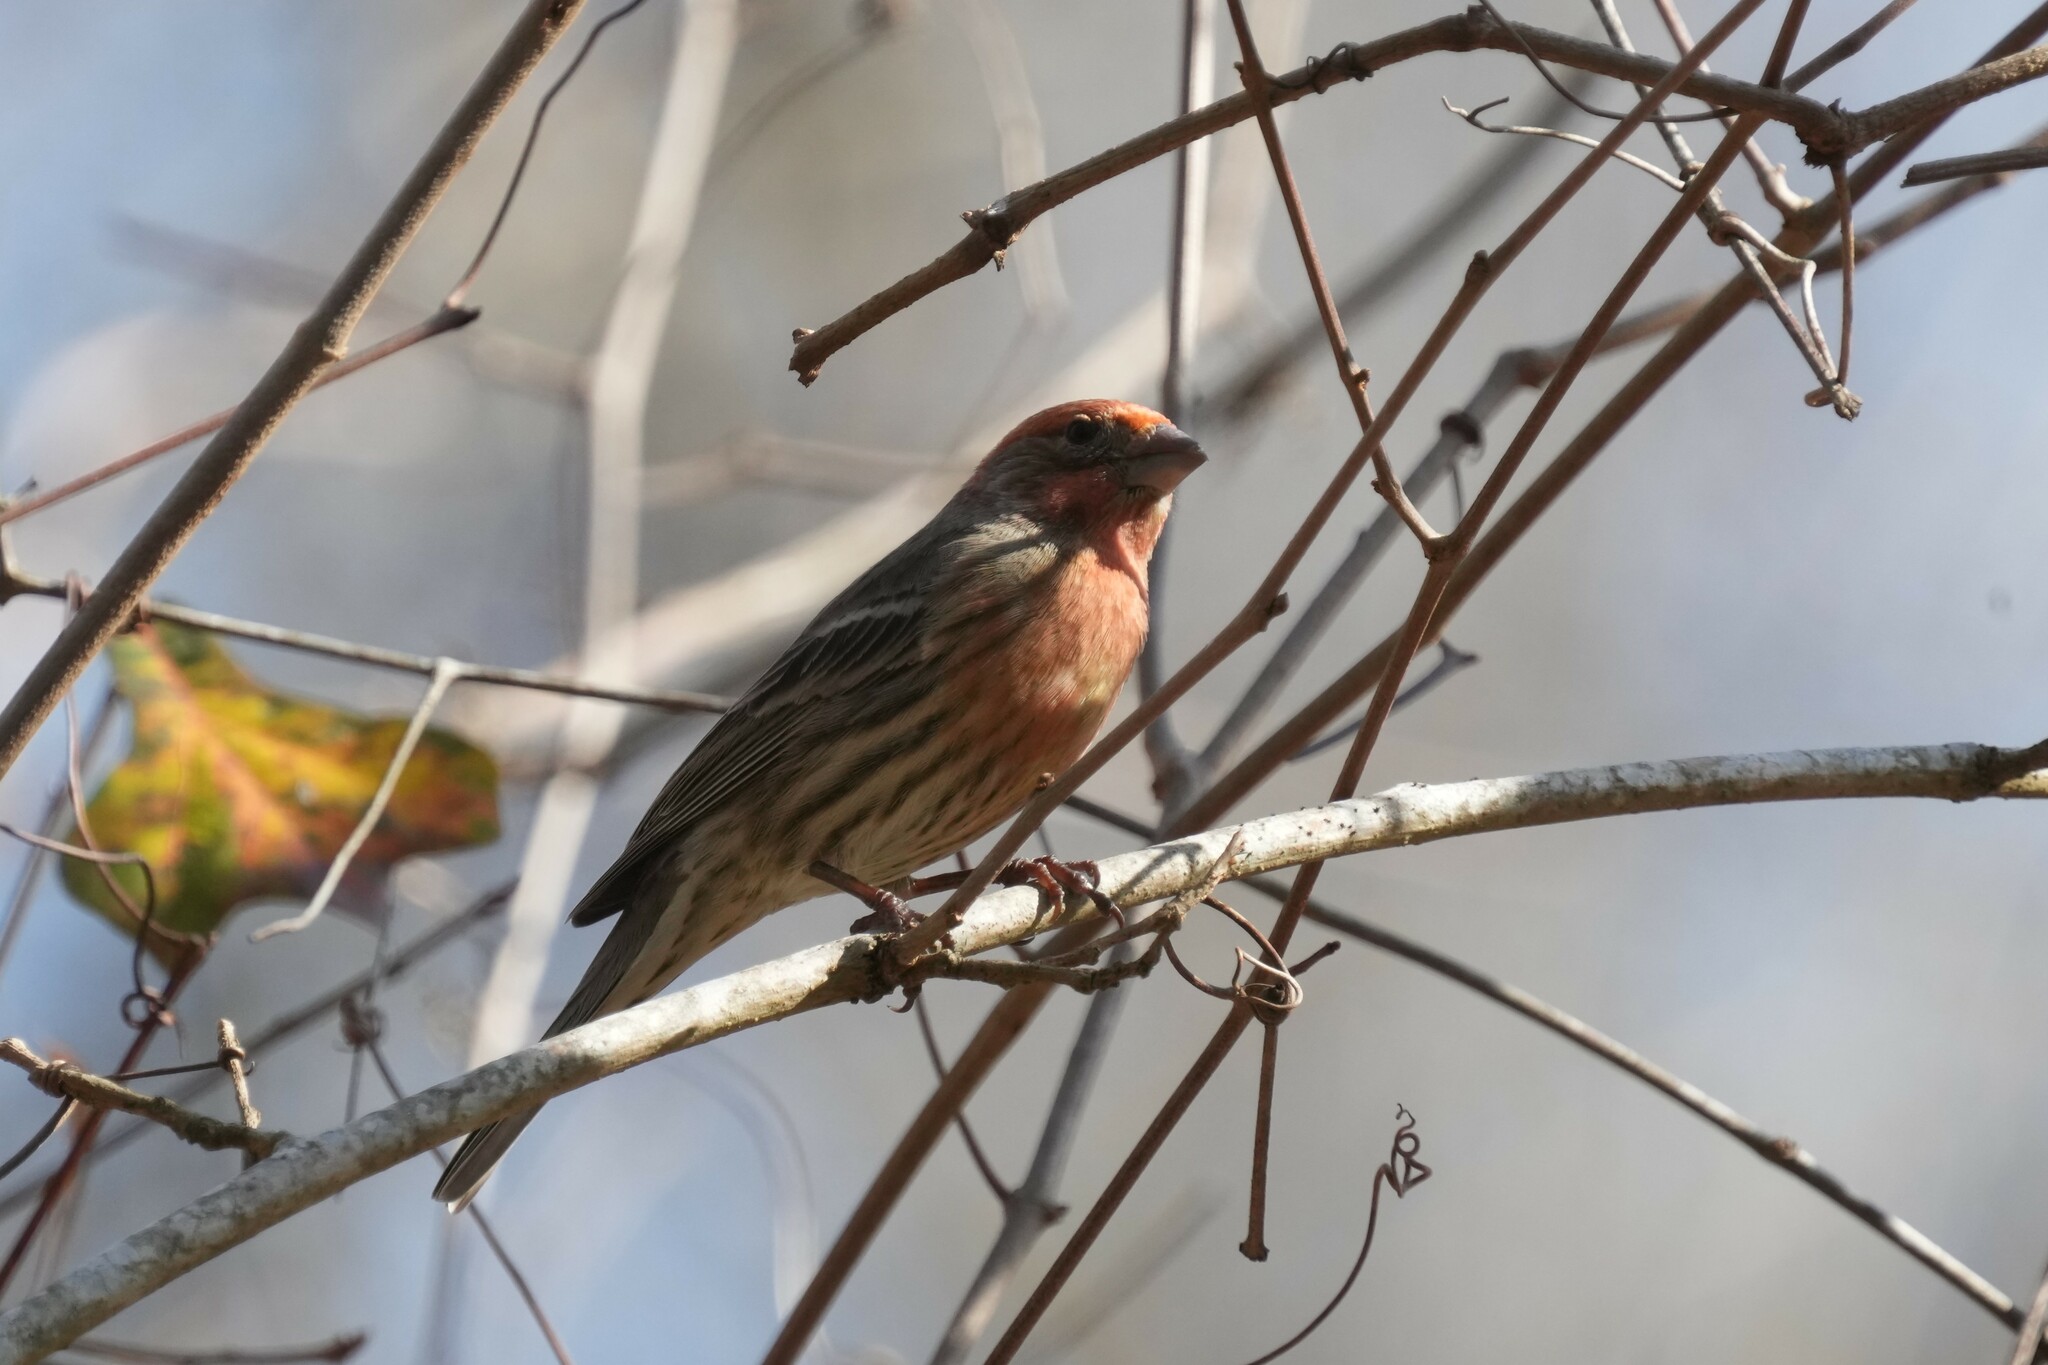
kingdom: Animalia
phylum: Chordata
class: Aves
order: Passeriformes
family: Fringillidae
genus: Haemorhous
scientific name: Haemorhous mexicanus
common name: House finch
